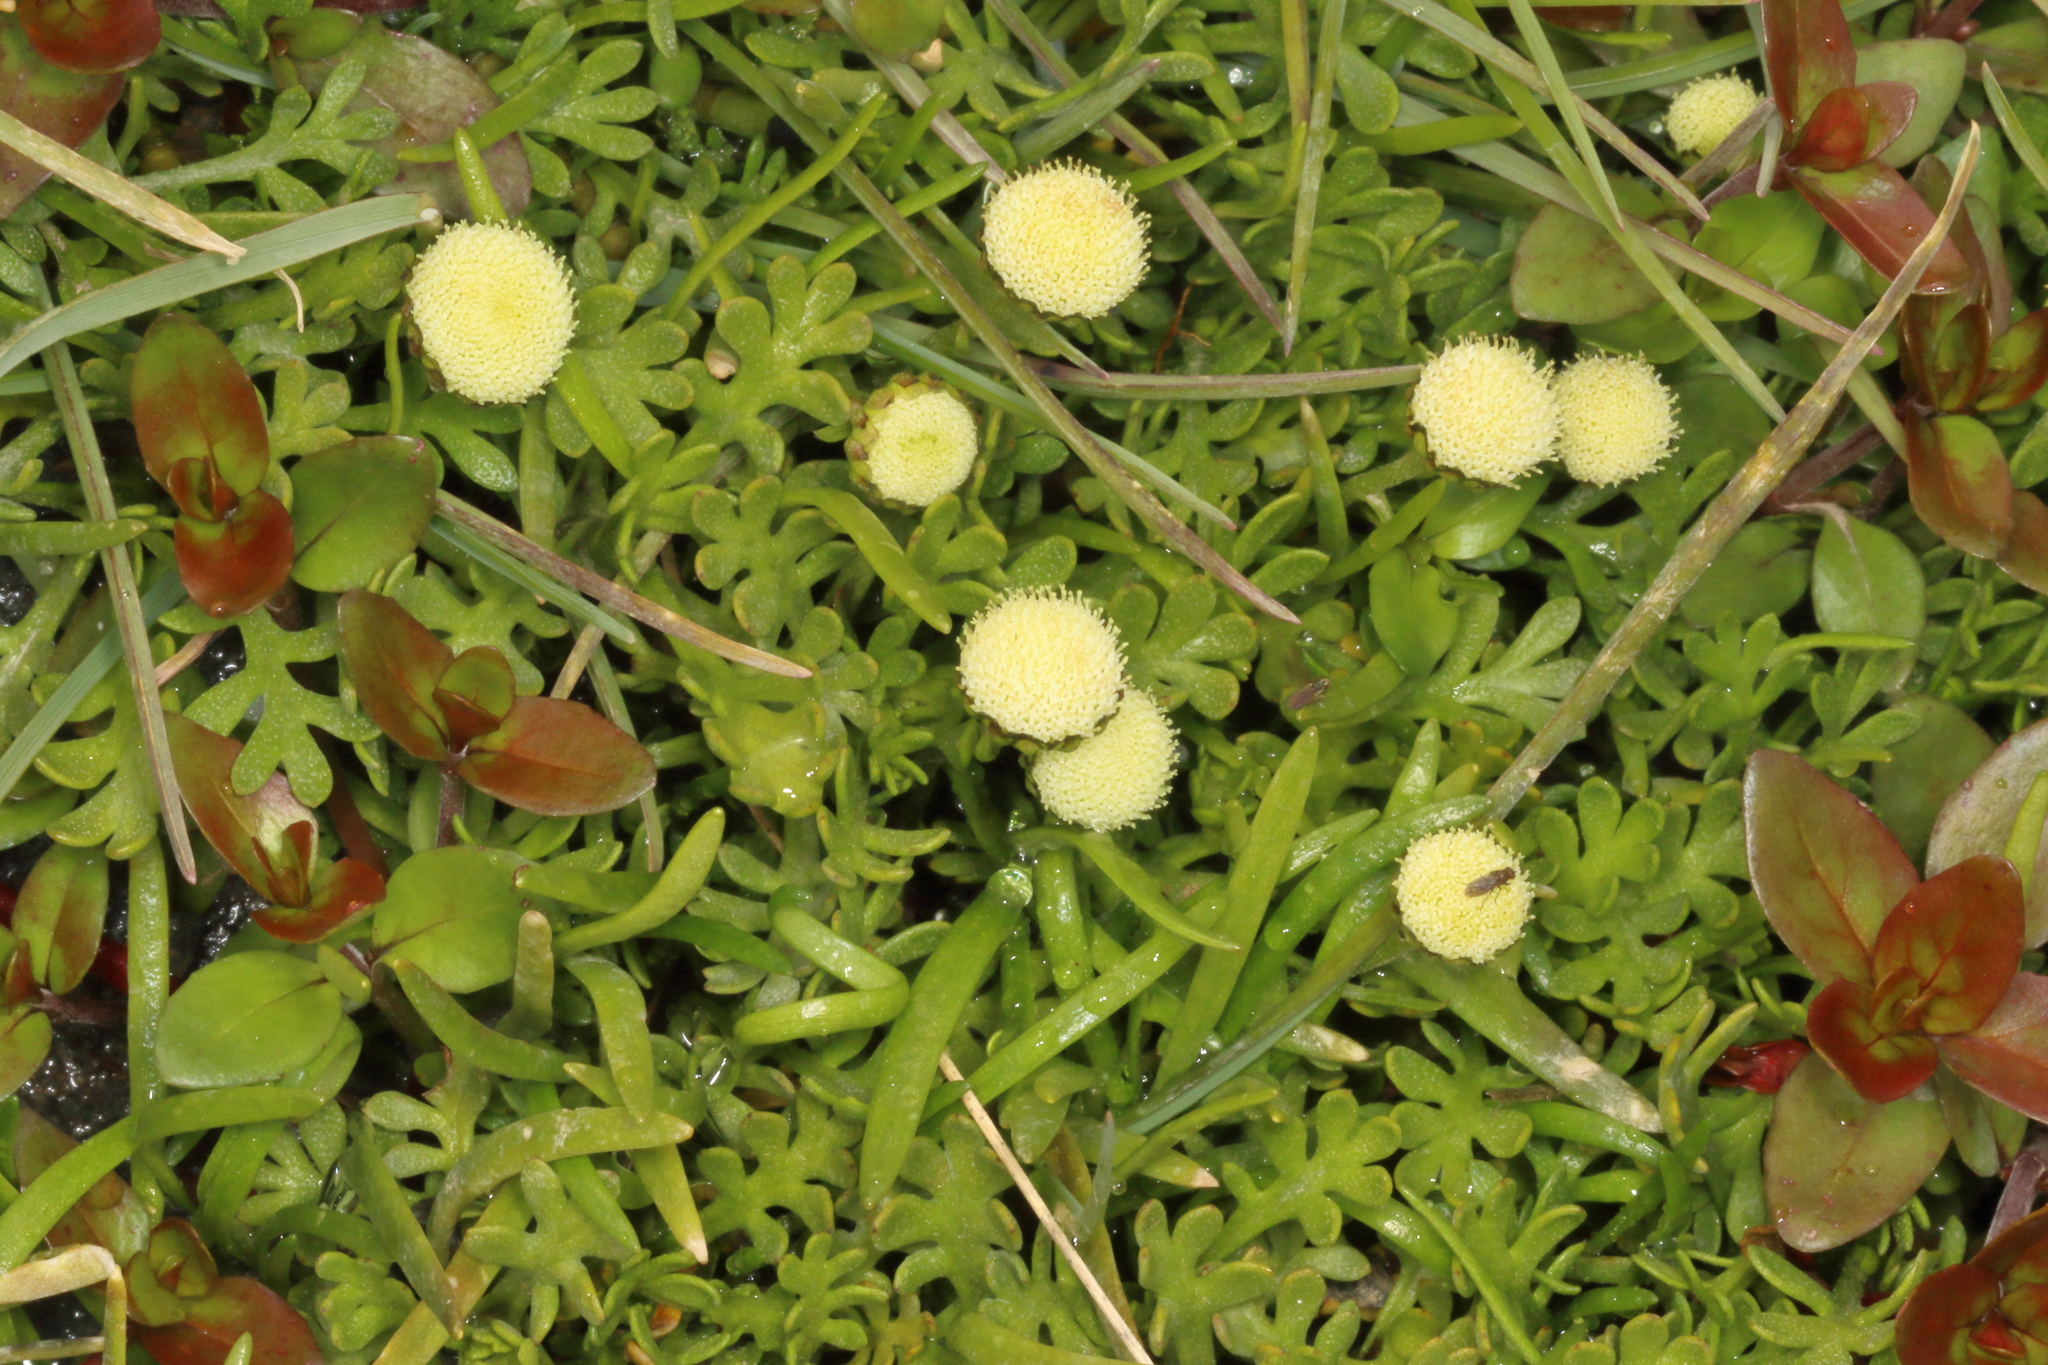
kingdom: Plantae
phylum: Tracheophyta
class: Magnoliopsida
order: Asterales
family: Asteraceae
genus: Leptinella
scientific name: Leptinella pyrethrifolia
